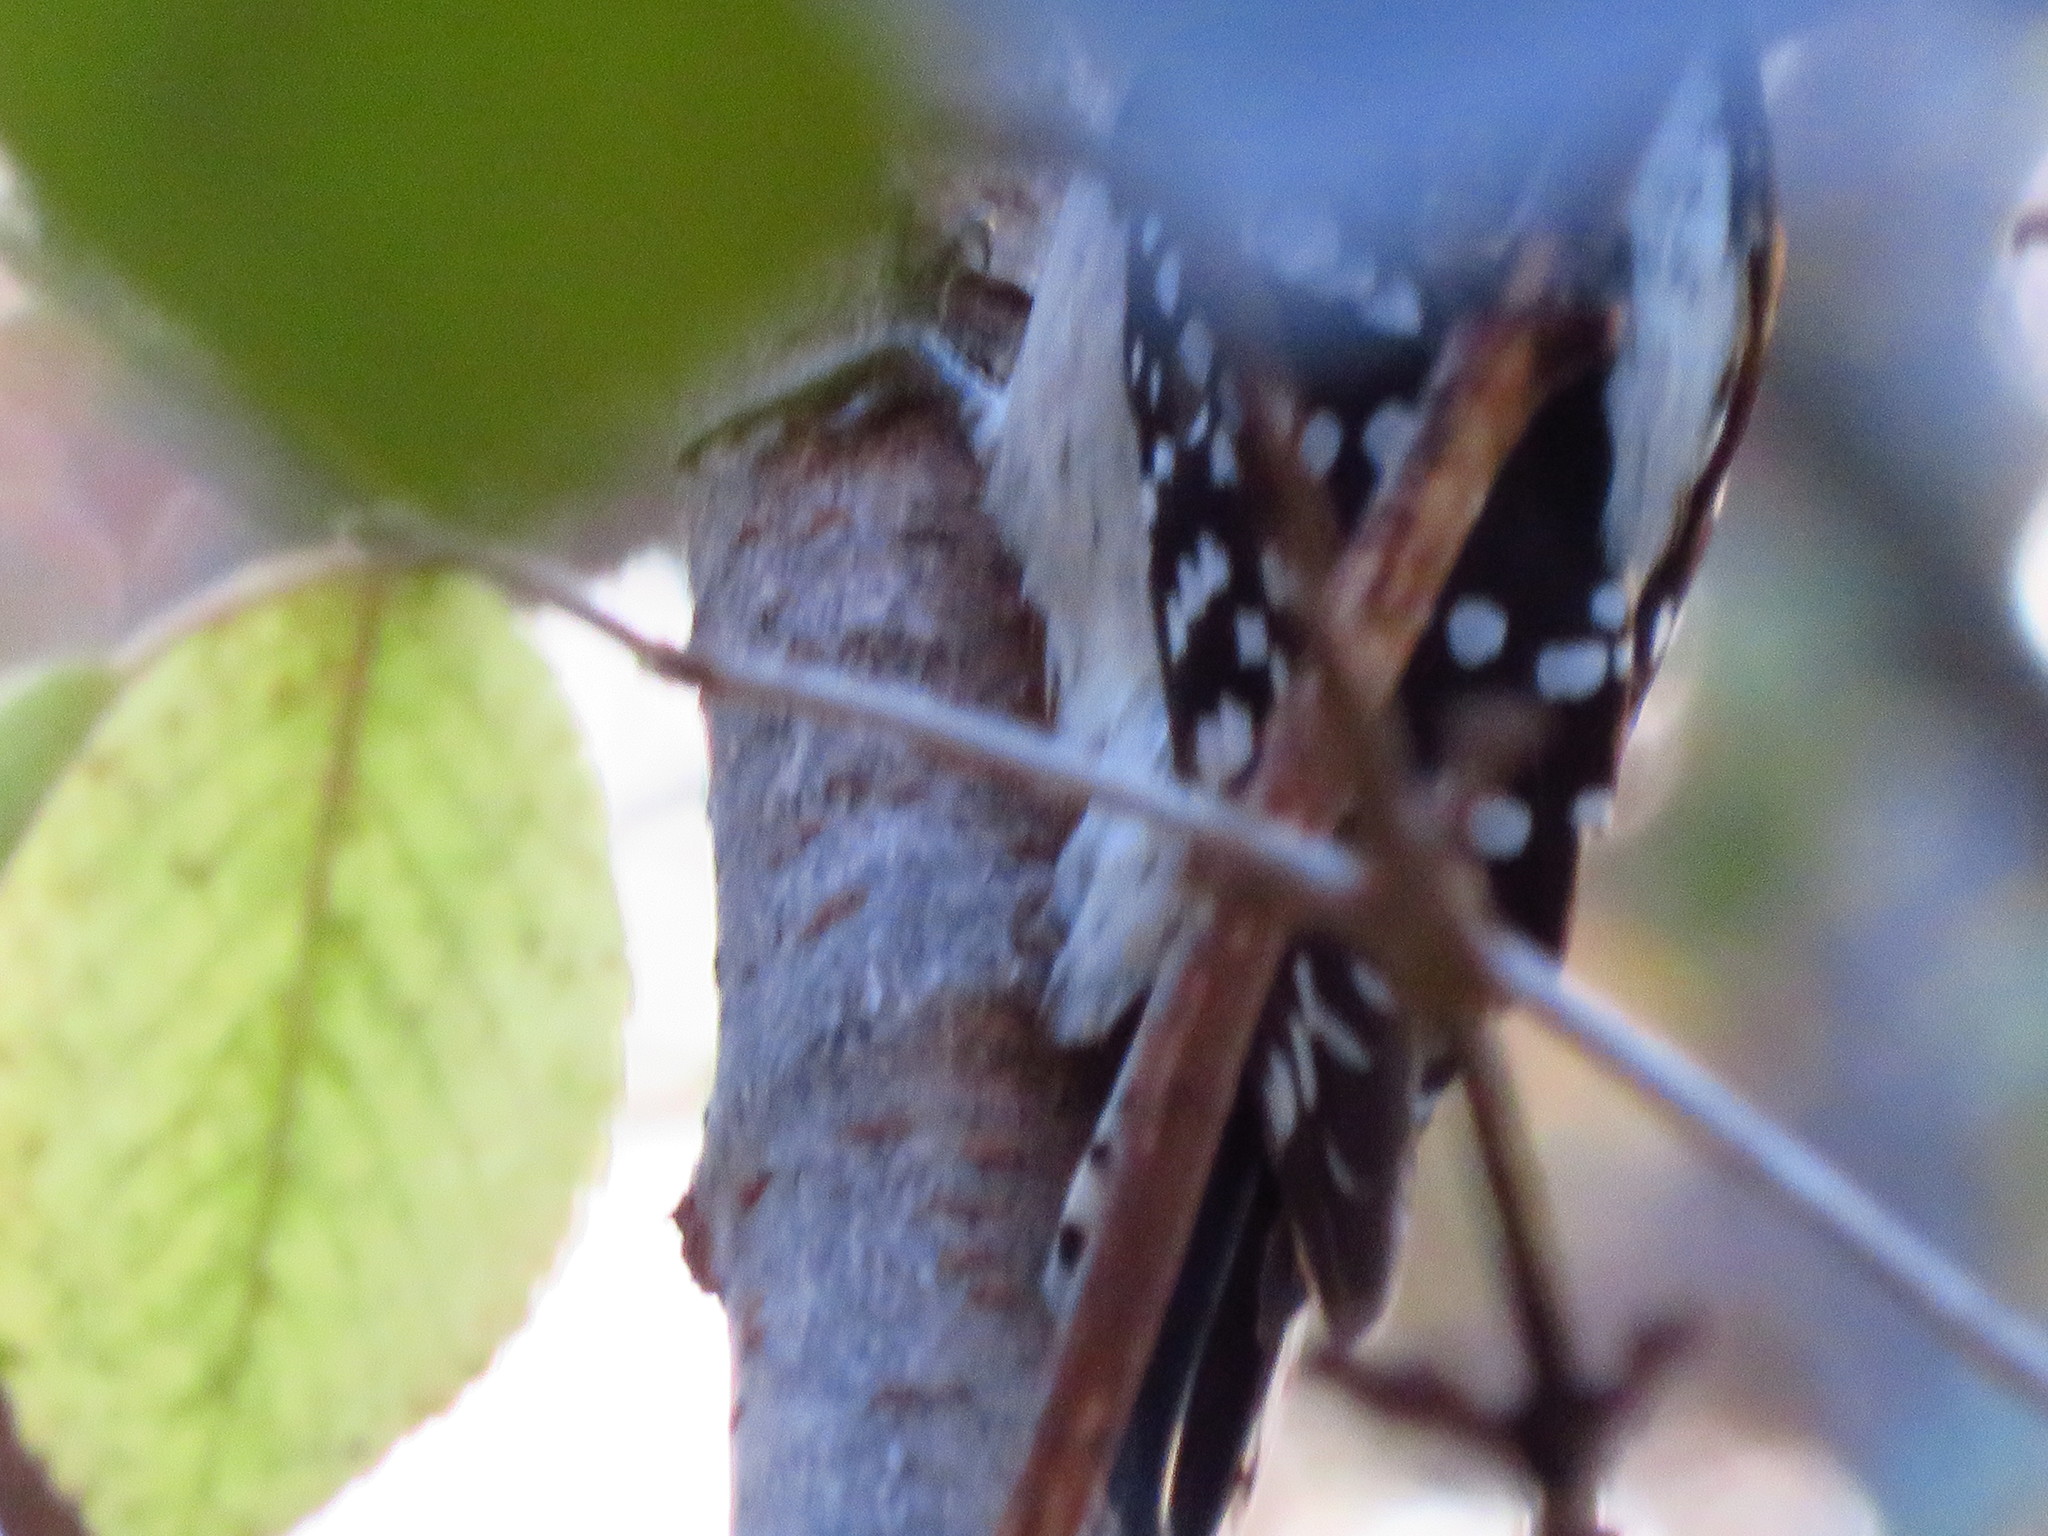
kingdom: Animalia
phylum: Chordata
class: Aves
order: Piciformes
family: Picidae
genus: Dryobates
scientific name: Dryobates pubescens
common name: Downy woodpecker
